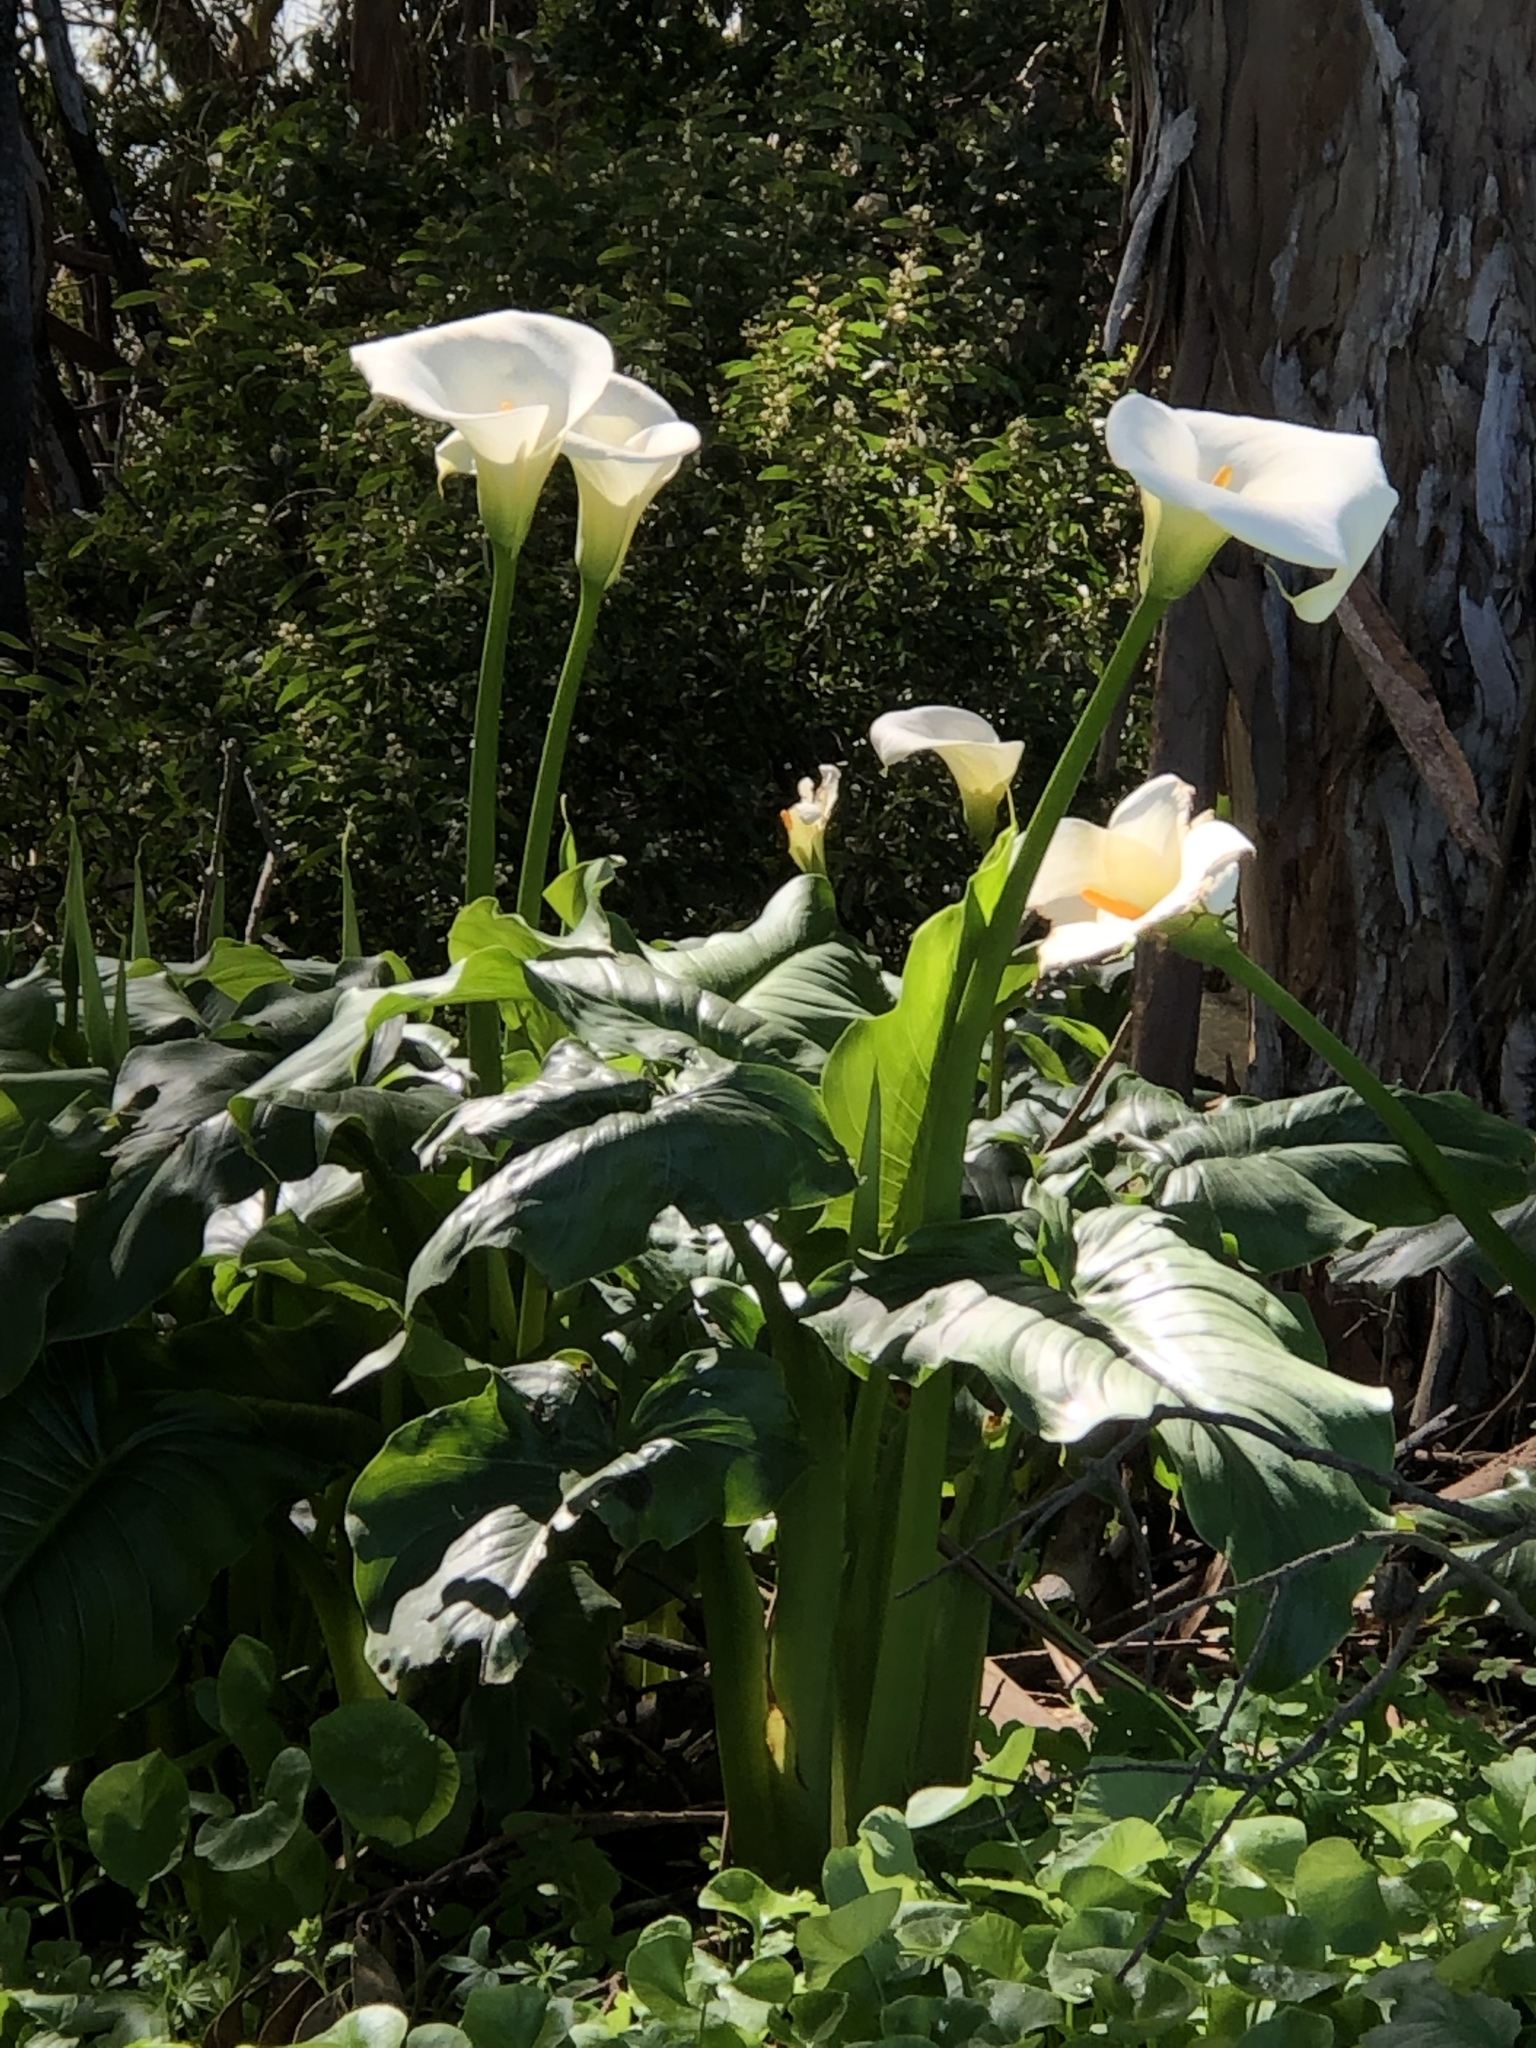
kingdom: Plantae
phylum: Tracheophyta
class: Liliopsida
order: Alismatales
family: Araceae
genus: Zantedeschia
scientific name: Zantedeschia aethiopica
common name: Altar-lily
